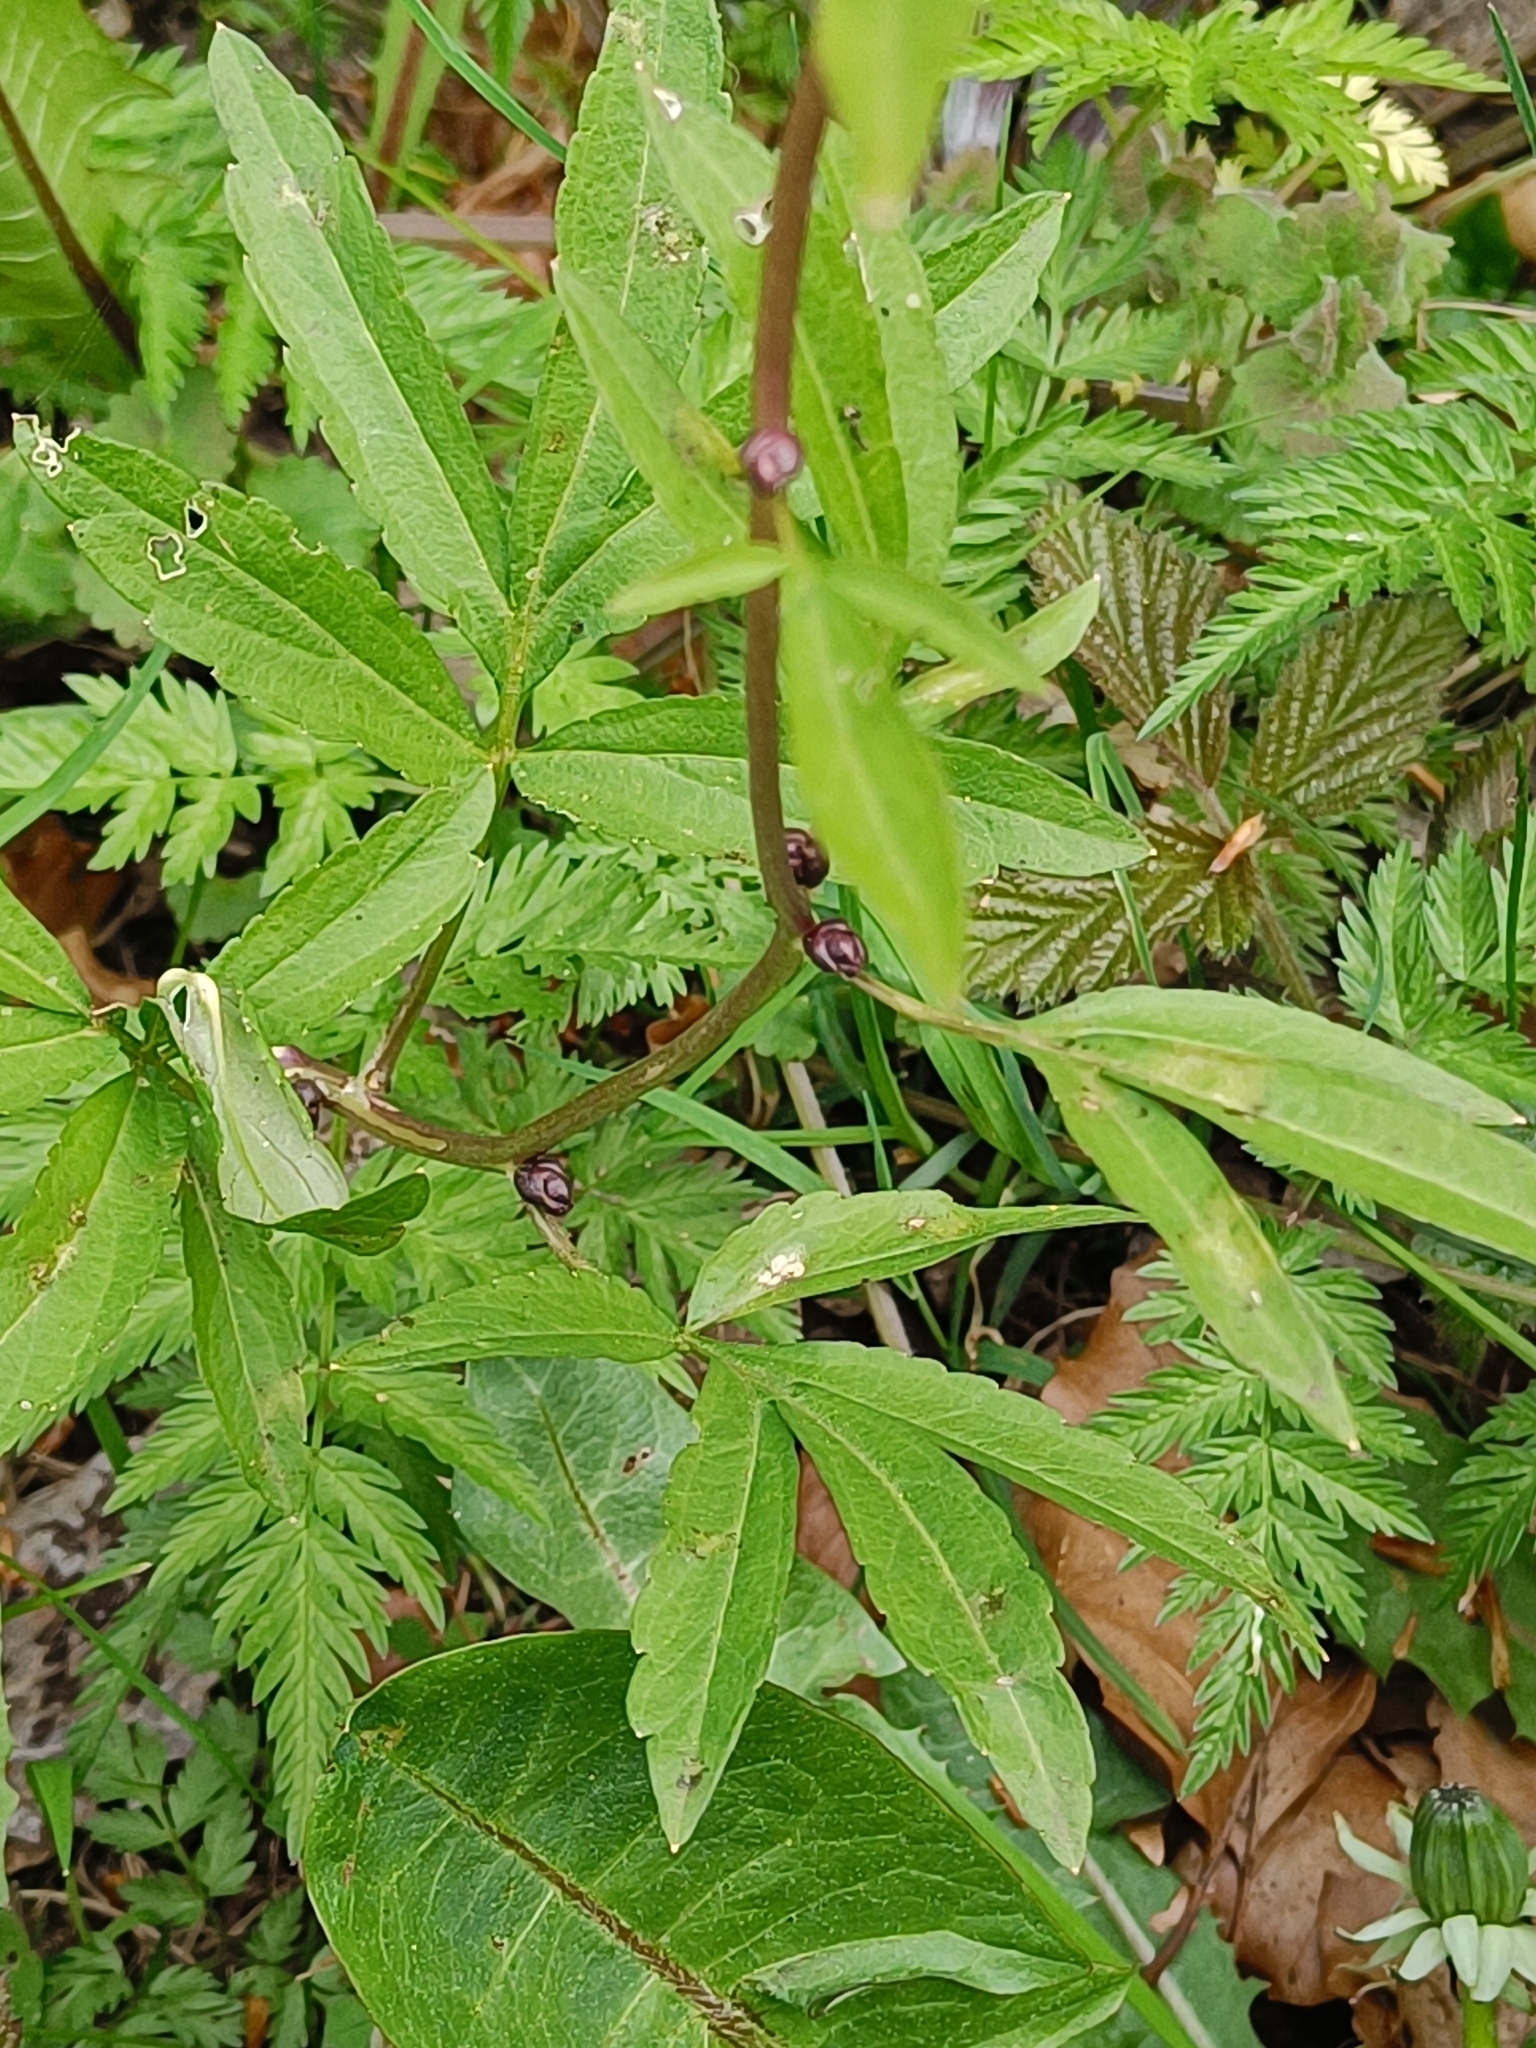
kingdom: Plantae
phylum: Tracheophyta
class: Magnoliopsida
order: Brassicales
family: Brassicaceae
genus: Cardamine
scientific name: Cardamine bulbifera
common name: Coralroot bittercress
